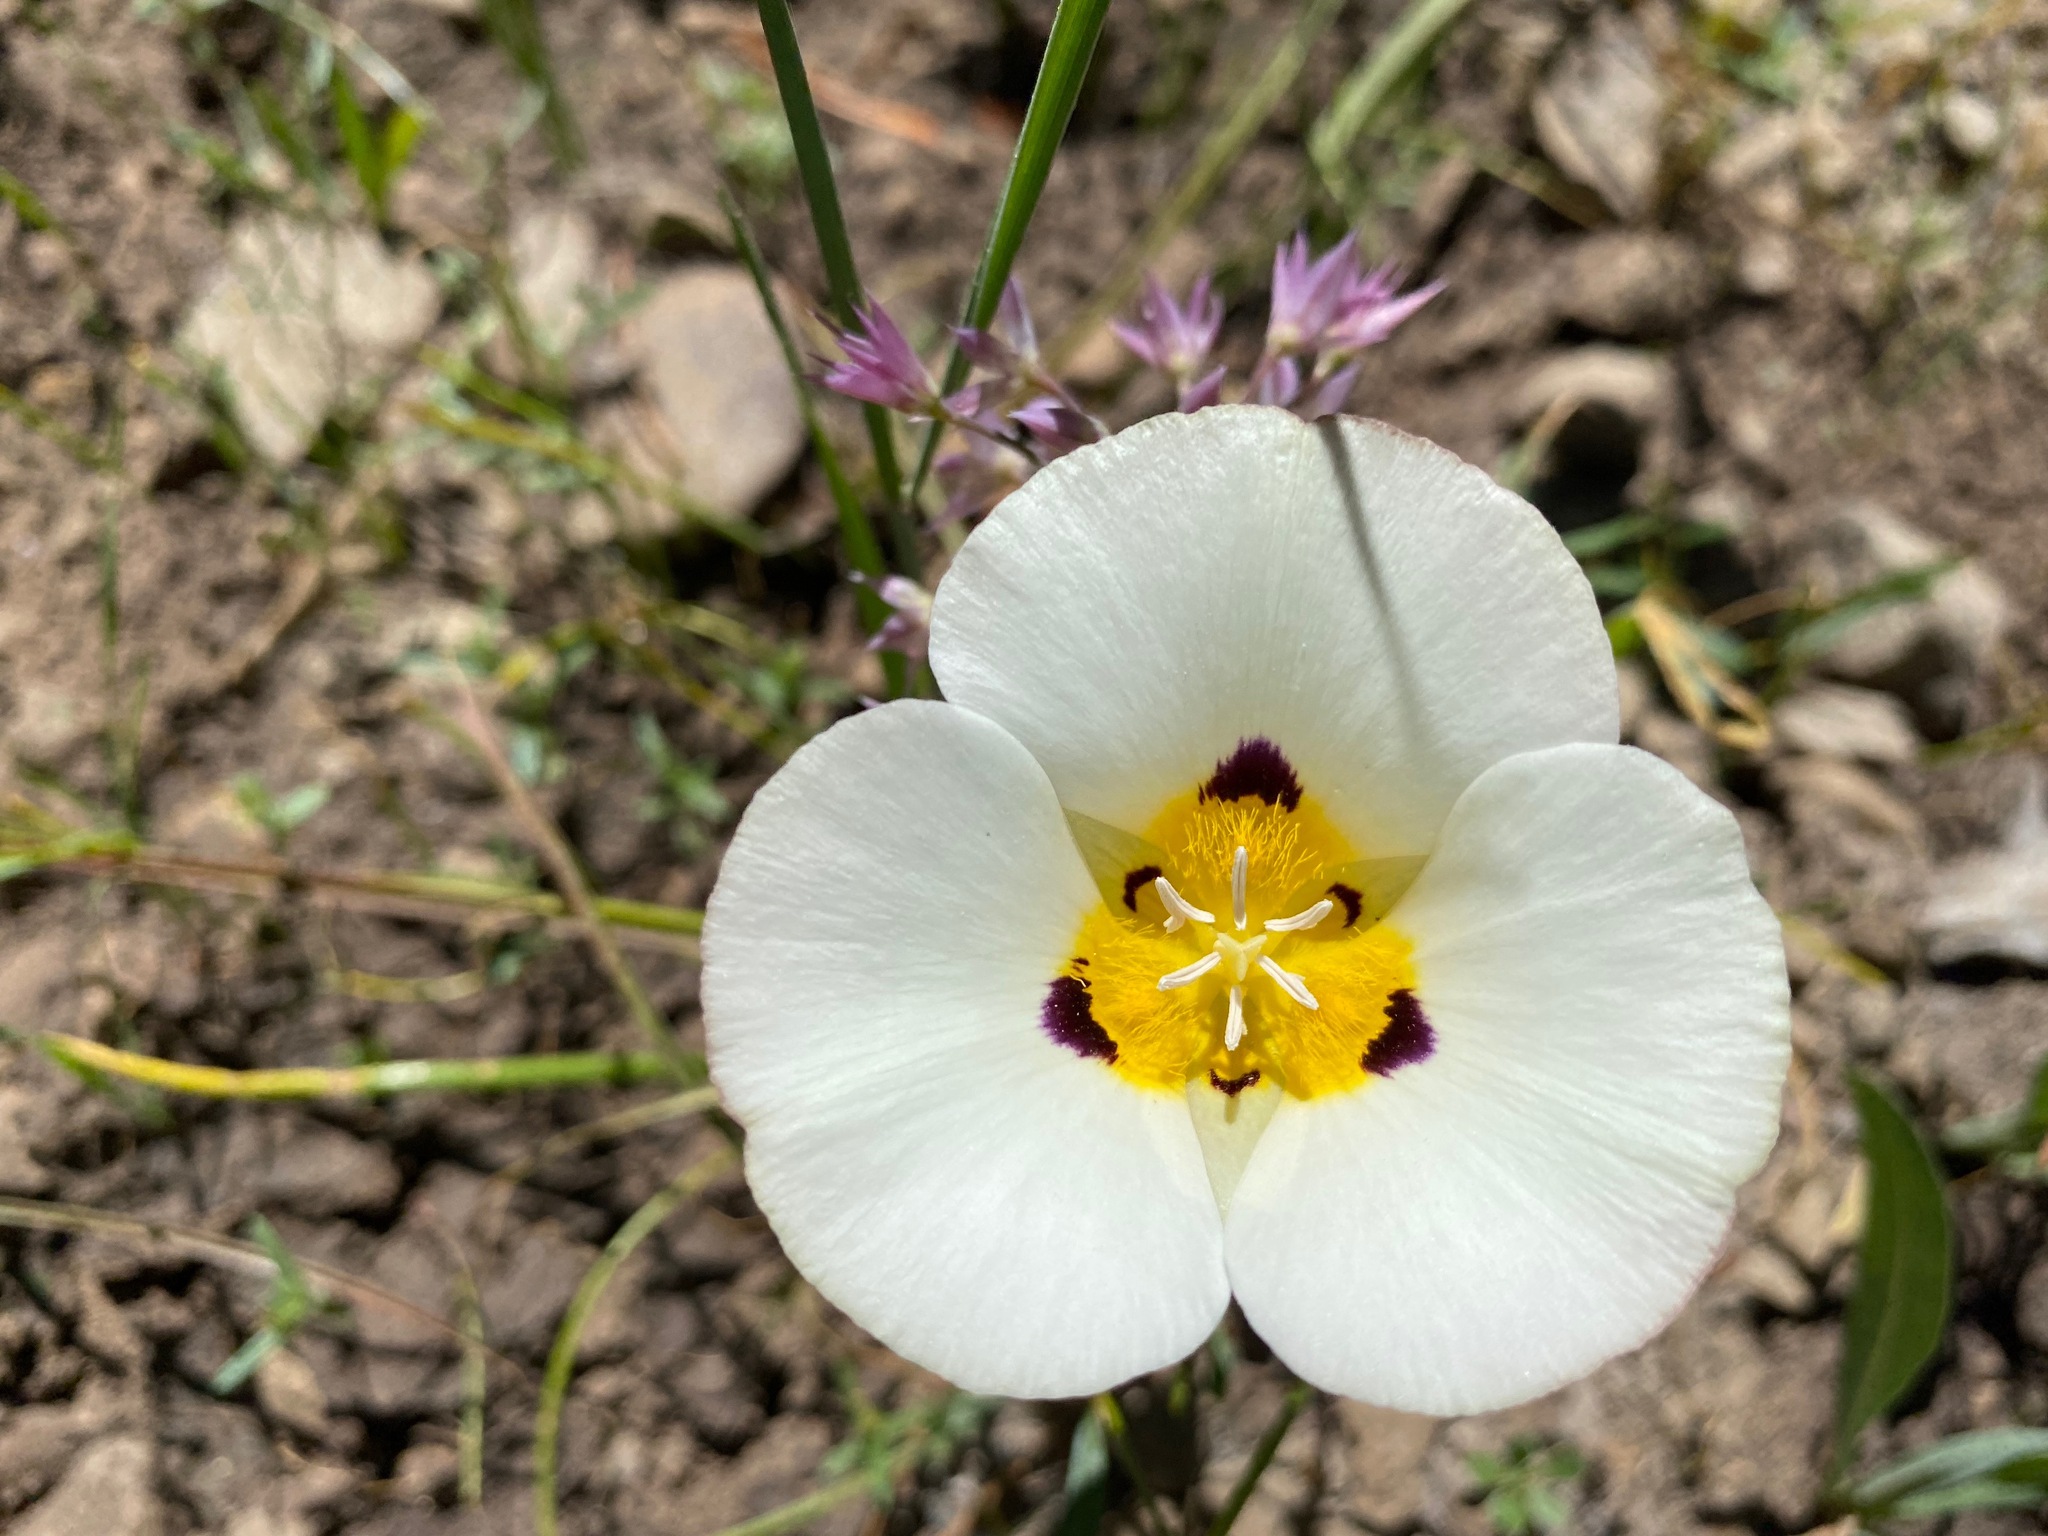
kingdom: Plantae
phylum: Tracheophyta
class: Liliopsida
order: Liliales
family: Liliaceae
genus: Calochortus
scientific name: Calochortus leichtlinii
